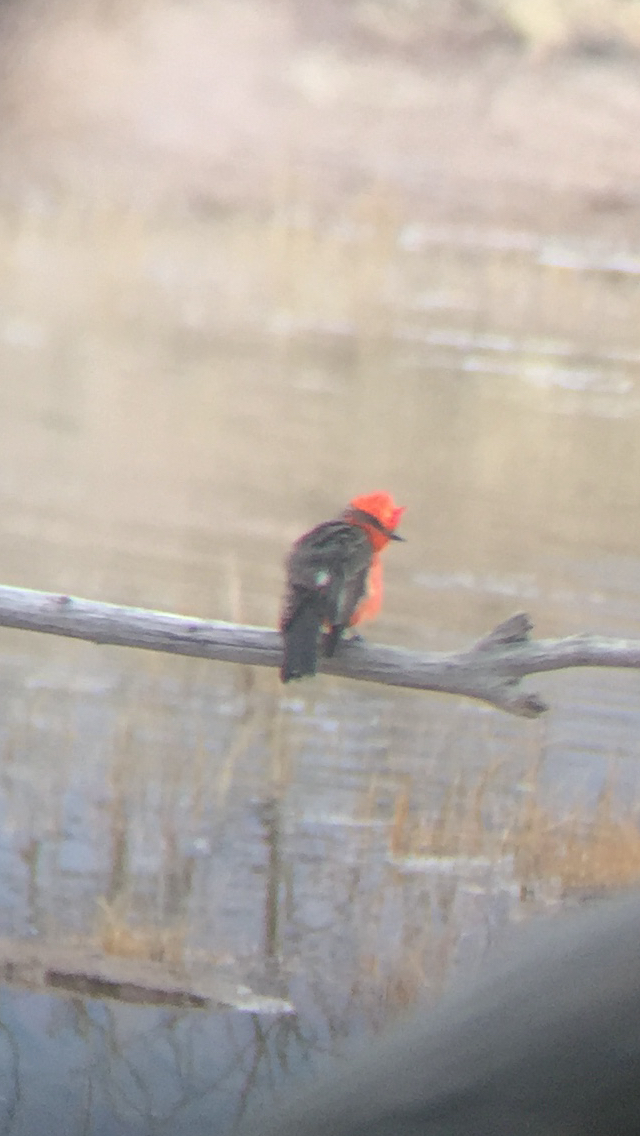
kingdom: Animalia
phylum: Chordata
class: Aves
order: Passeriformes
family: Tyrannidae
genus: Pyrocephalus
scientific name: Pyrocephalus rubinus
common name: Vermilion flycatcher
